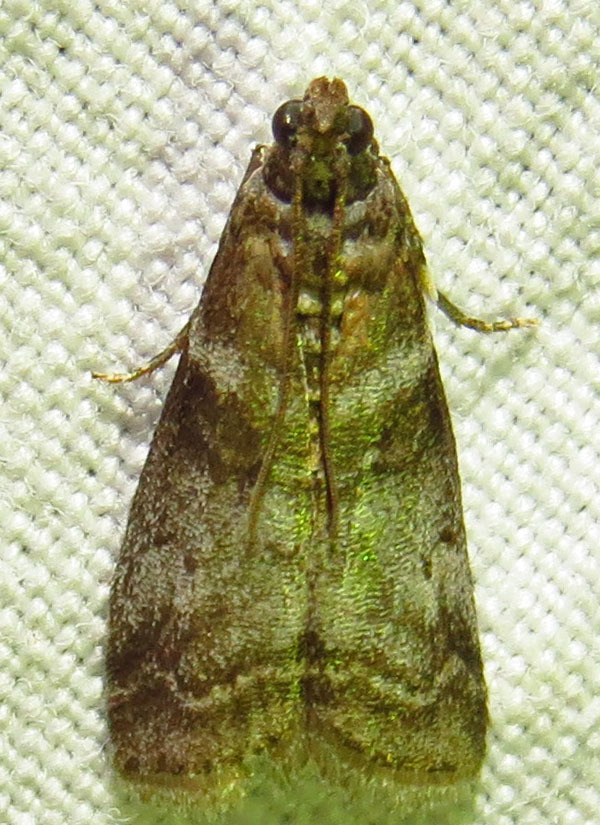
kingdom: Animalia
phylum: Arthropoda
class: Insecta
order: Lepidoptera
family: Pyralidae
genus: Sciota
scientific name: Sciota uvinella
